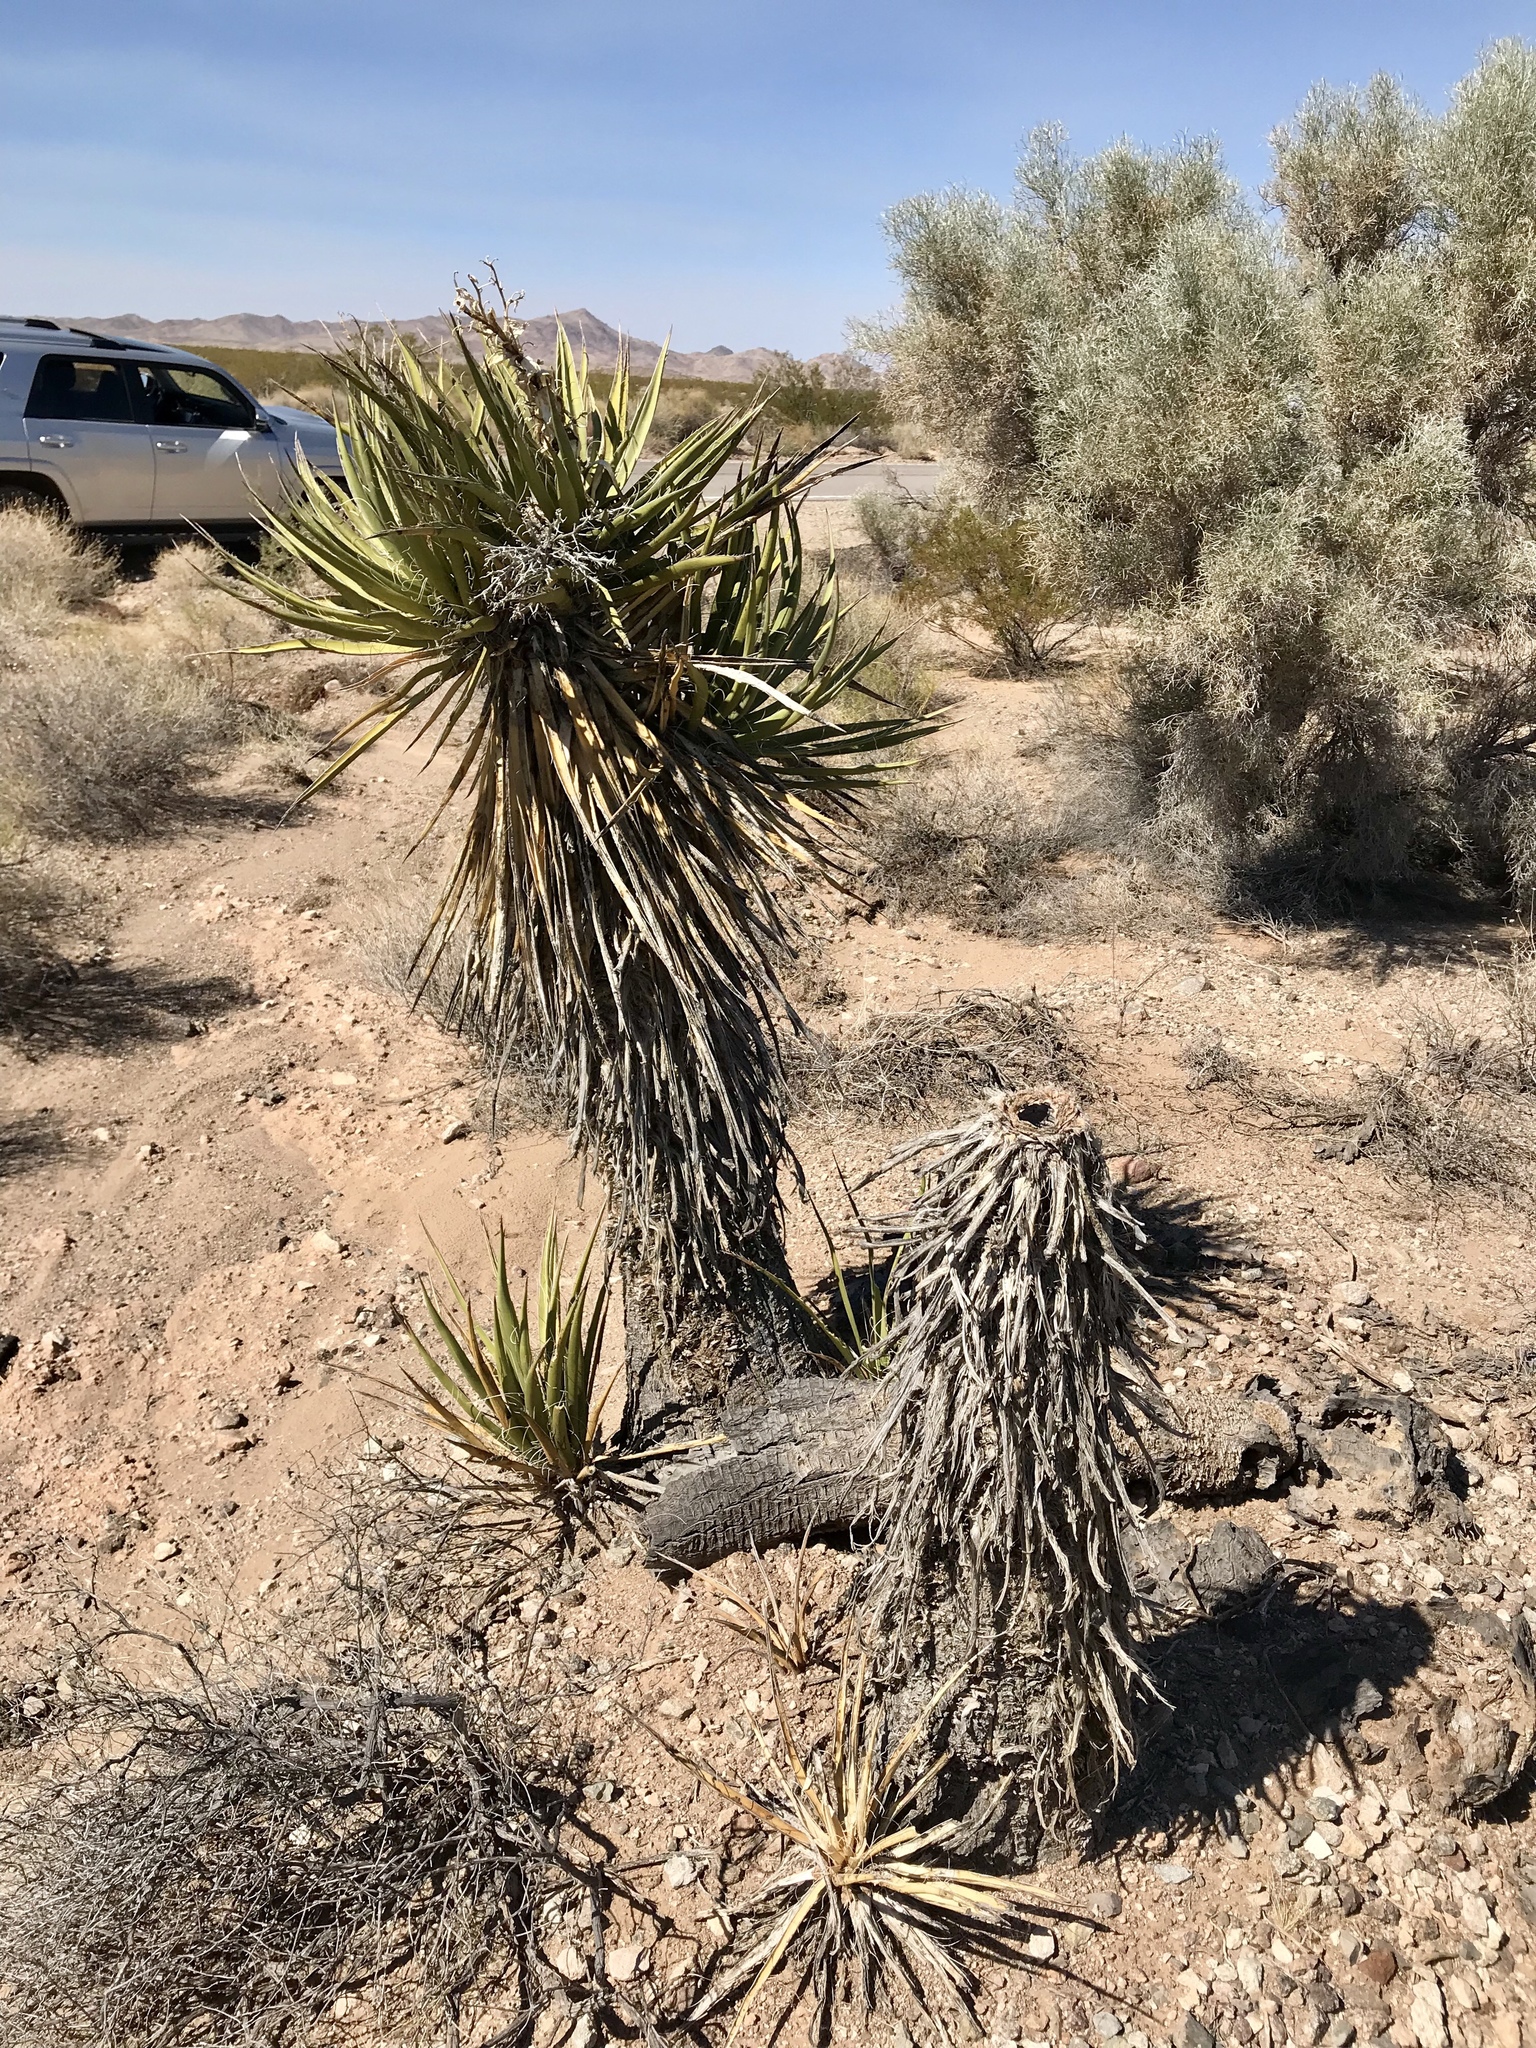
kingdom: Plantae
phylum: Tracheophyta
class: Liliopsida
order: Asparagales
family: Asparagaceae
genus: Yucca
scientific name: Yucca schidigera
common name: Mojave yucca
